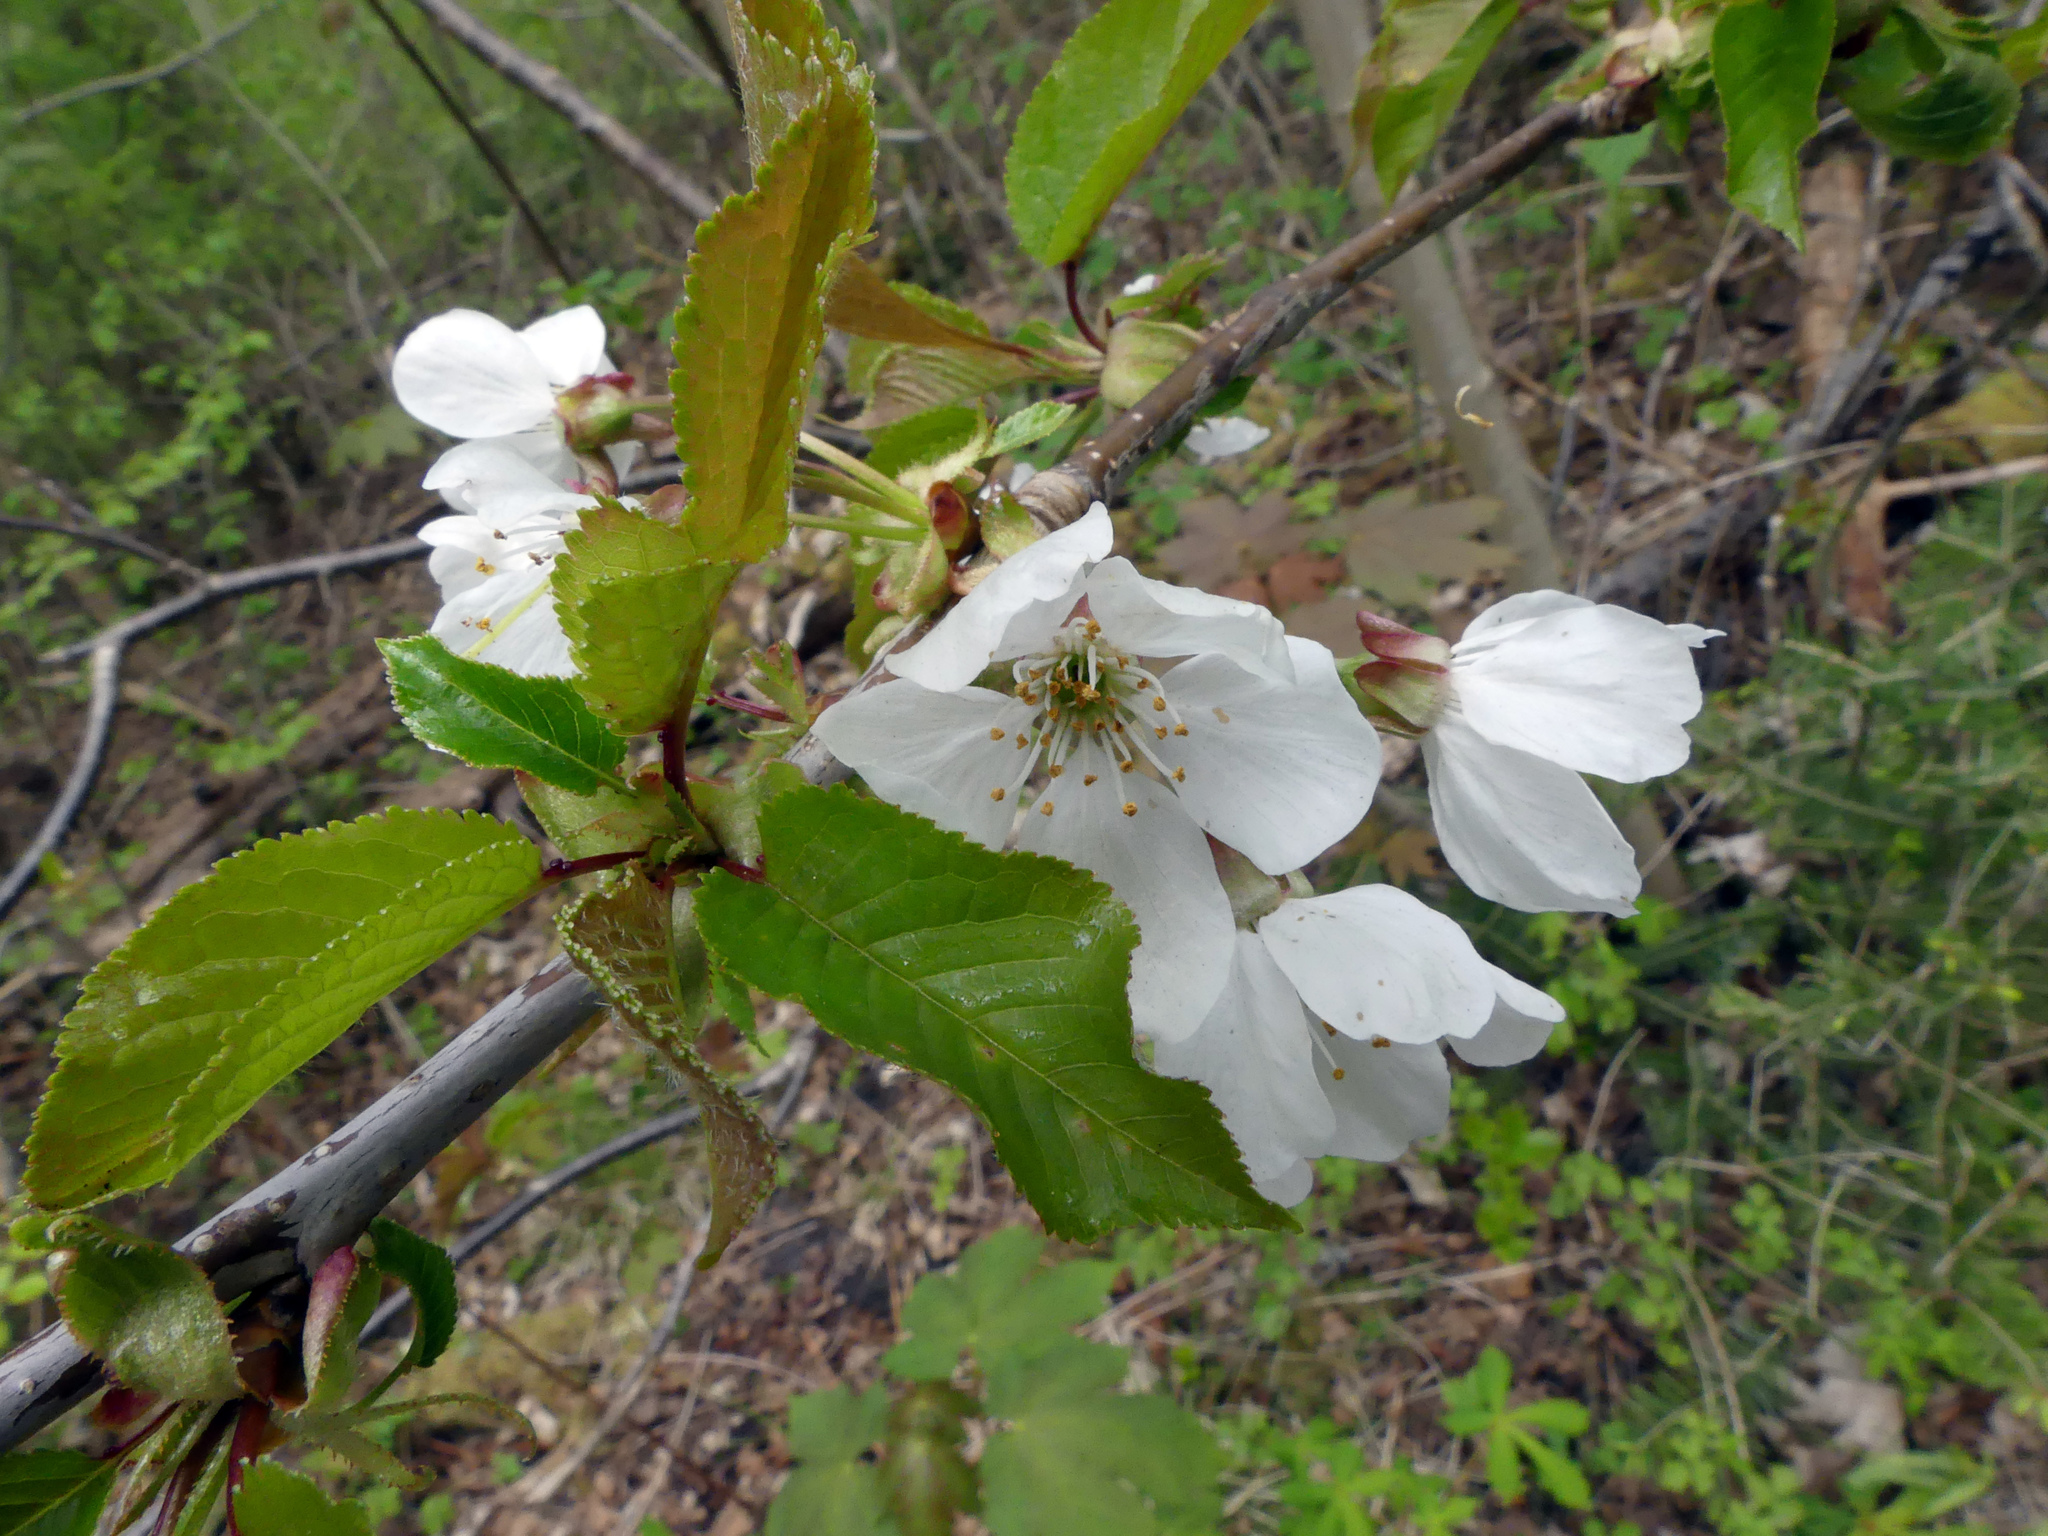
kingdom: Plantae
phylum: Tracheophyta
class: Magnoliopsida
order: Rosales
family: Rosaceae
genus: Prunus
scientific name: Prunus avium
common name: Sweet cherry
